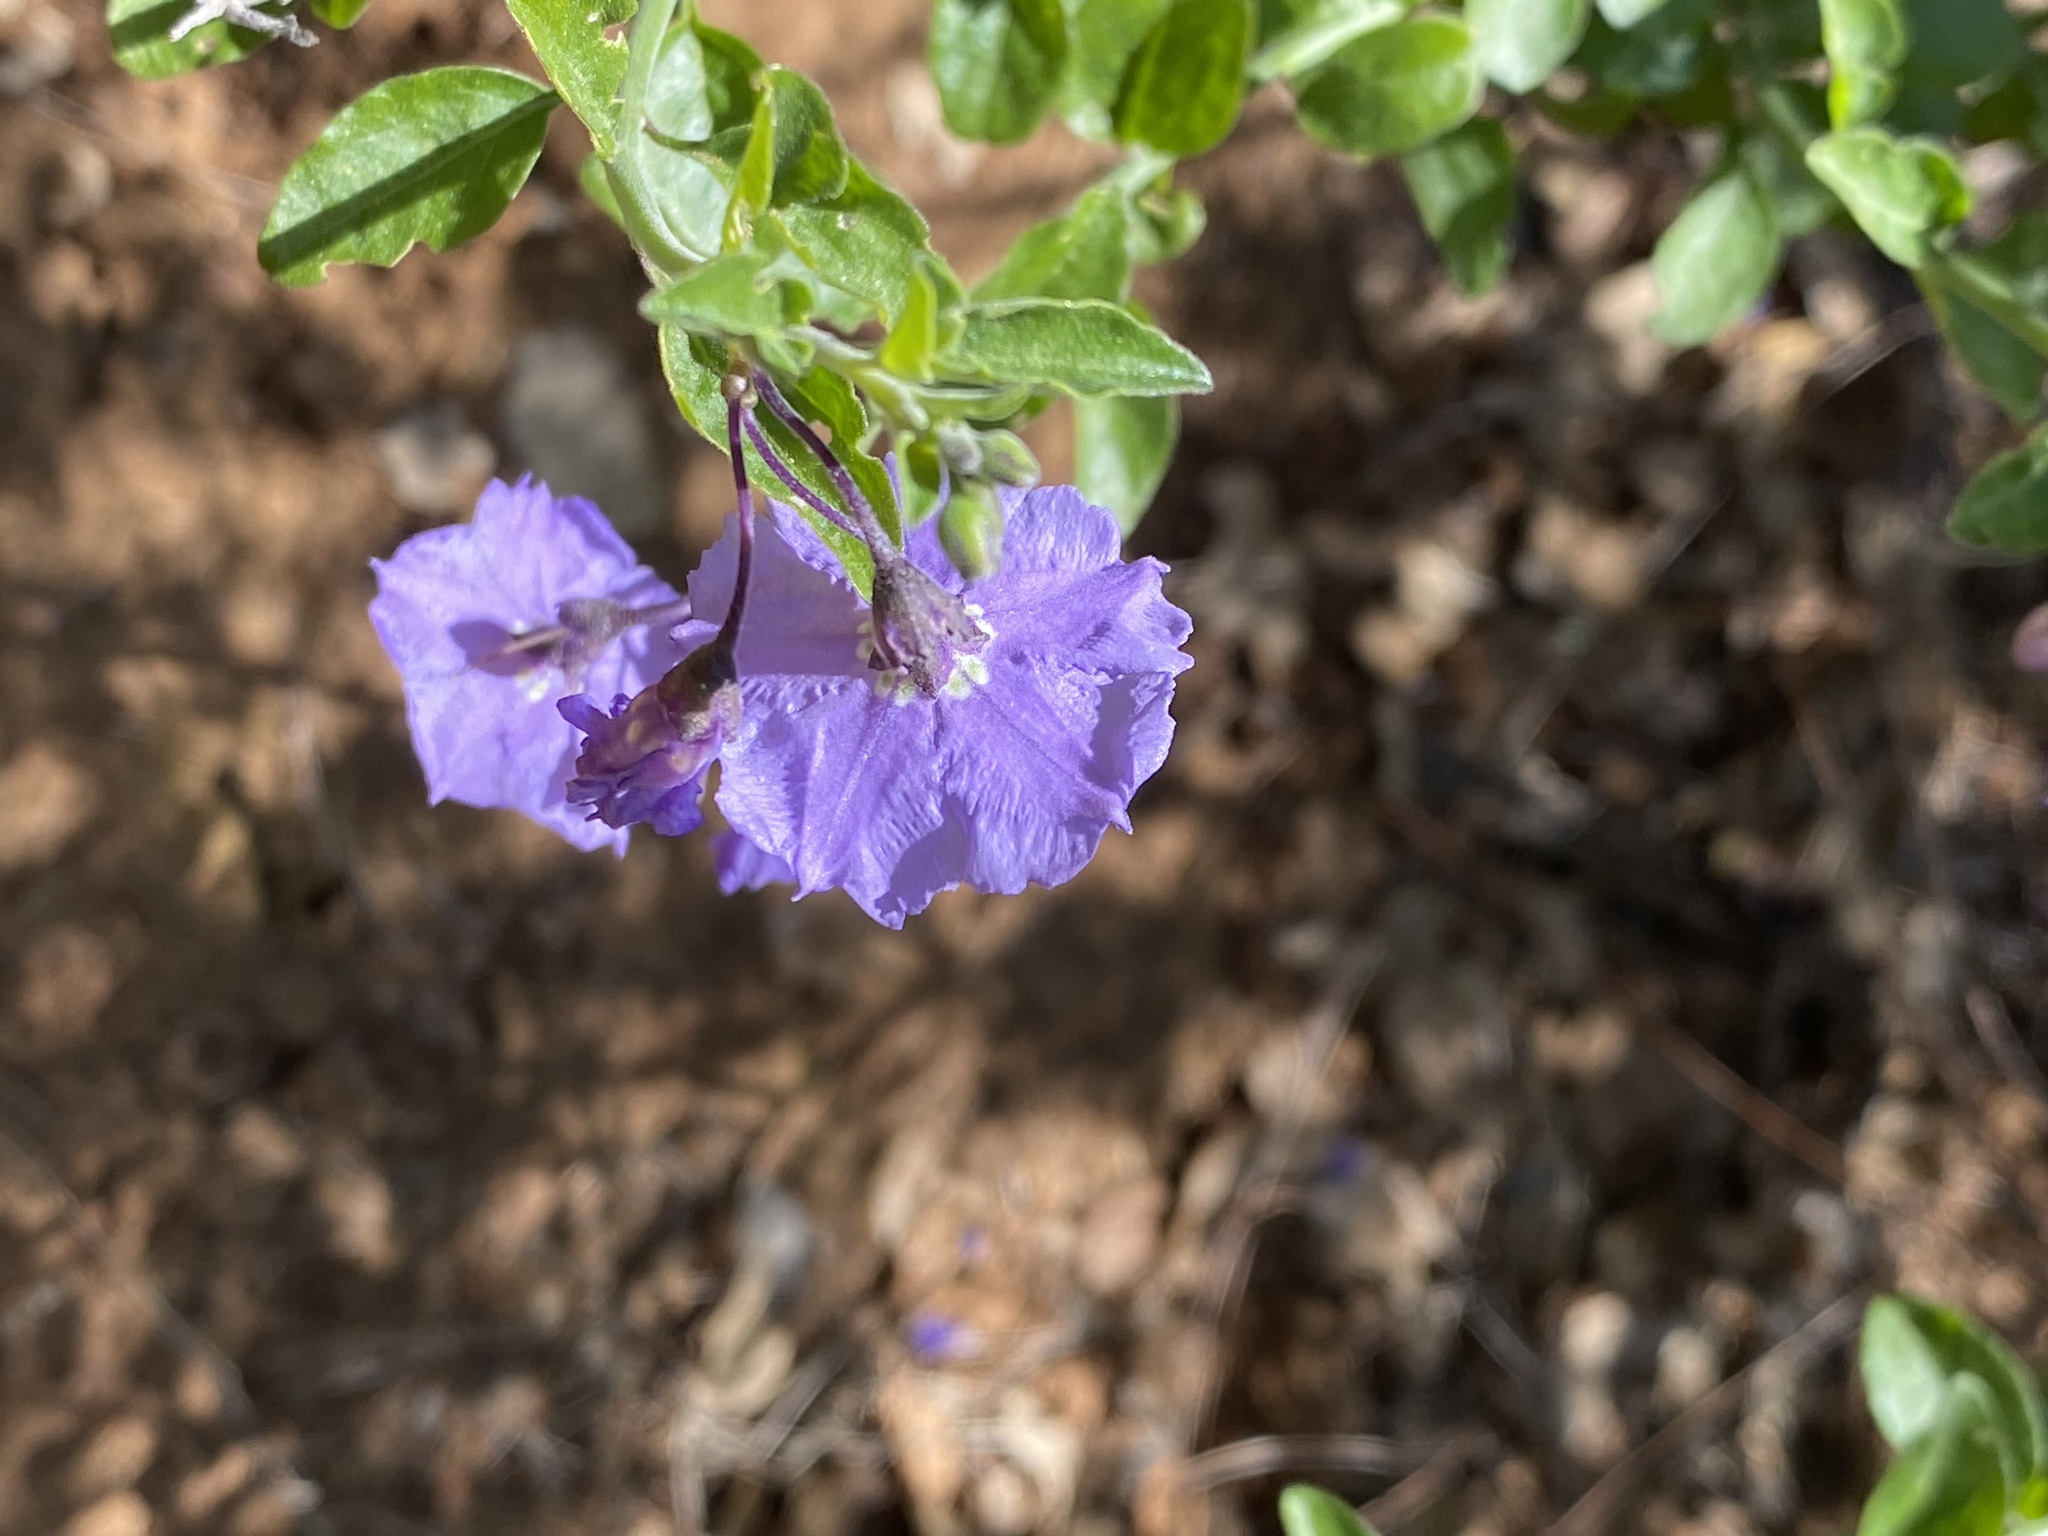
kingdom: Plantae
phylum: Tracheophyta
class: Magnoliopsida
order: Solanales
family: Solanaceae
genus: Solanum
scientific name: Solanum umbelliferum
